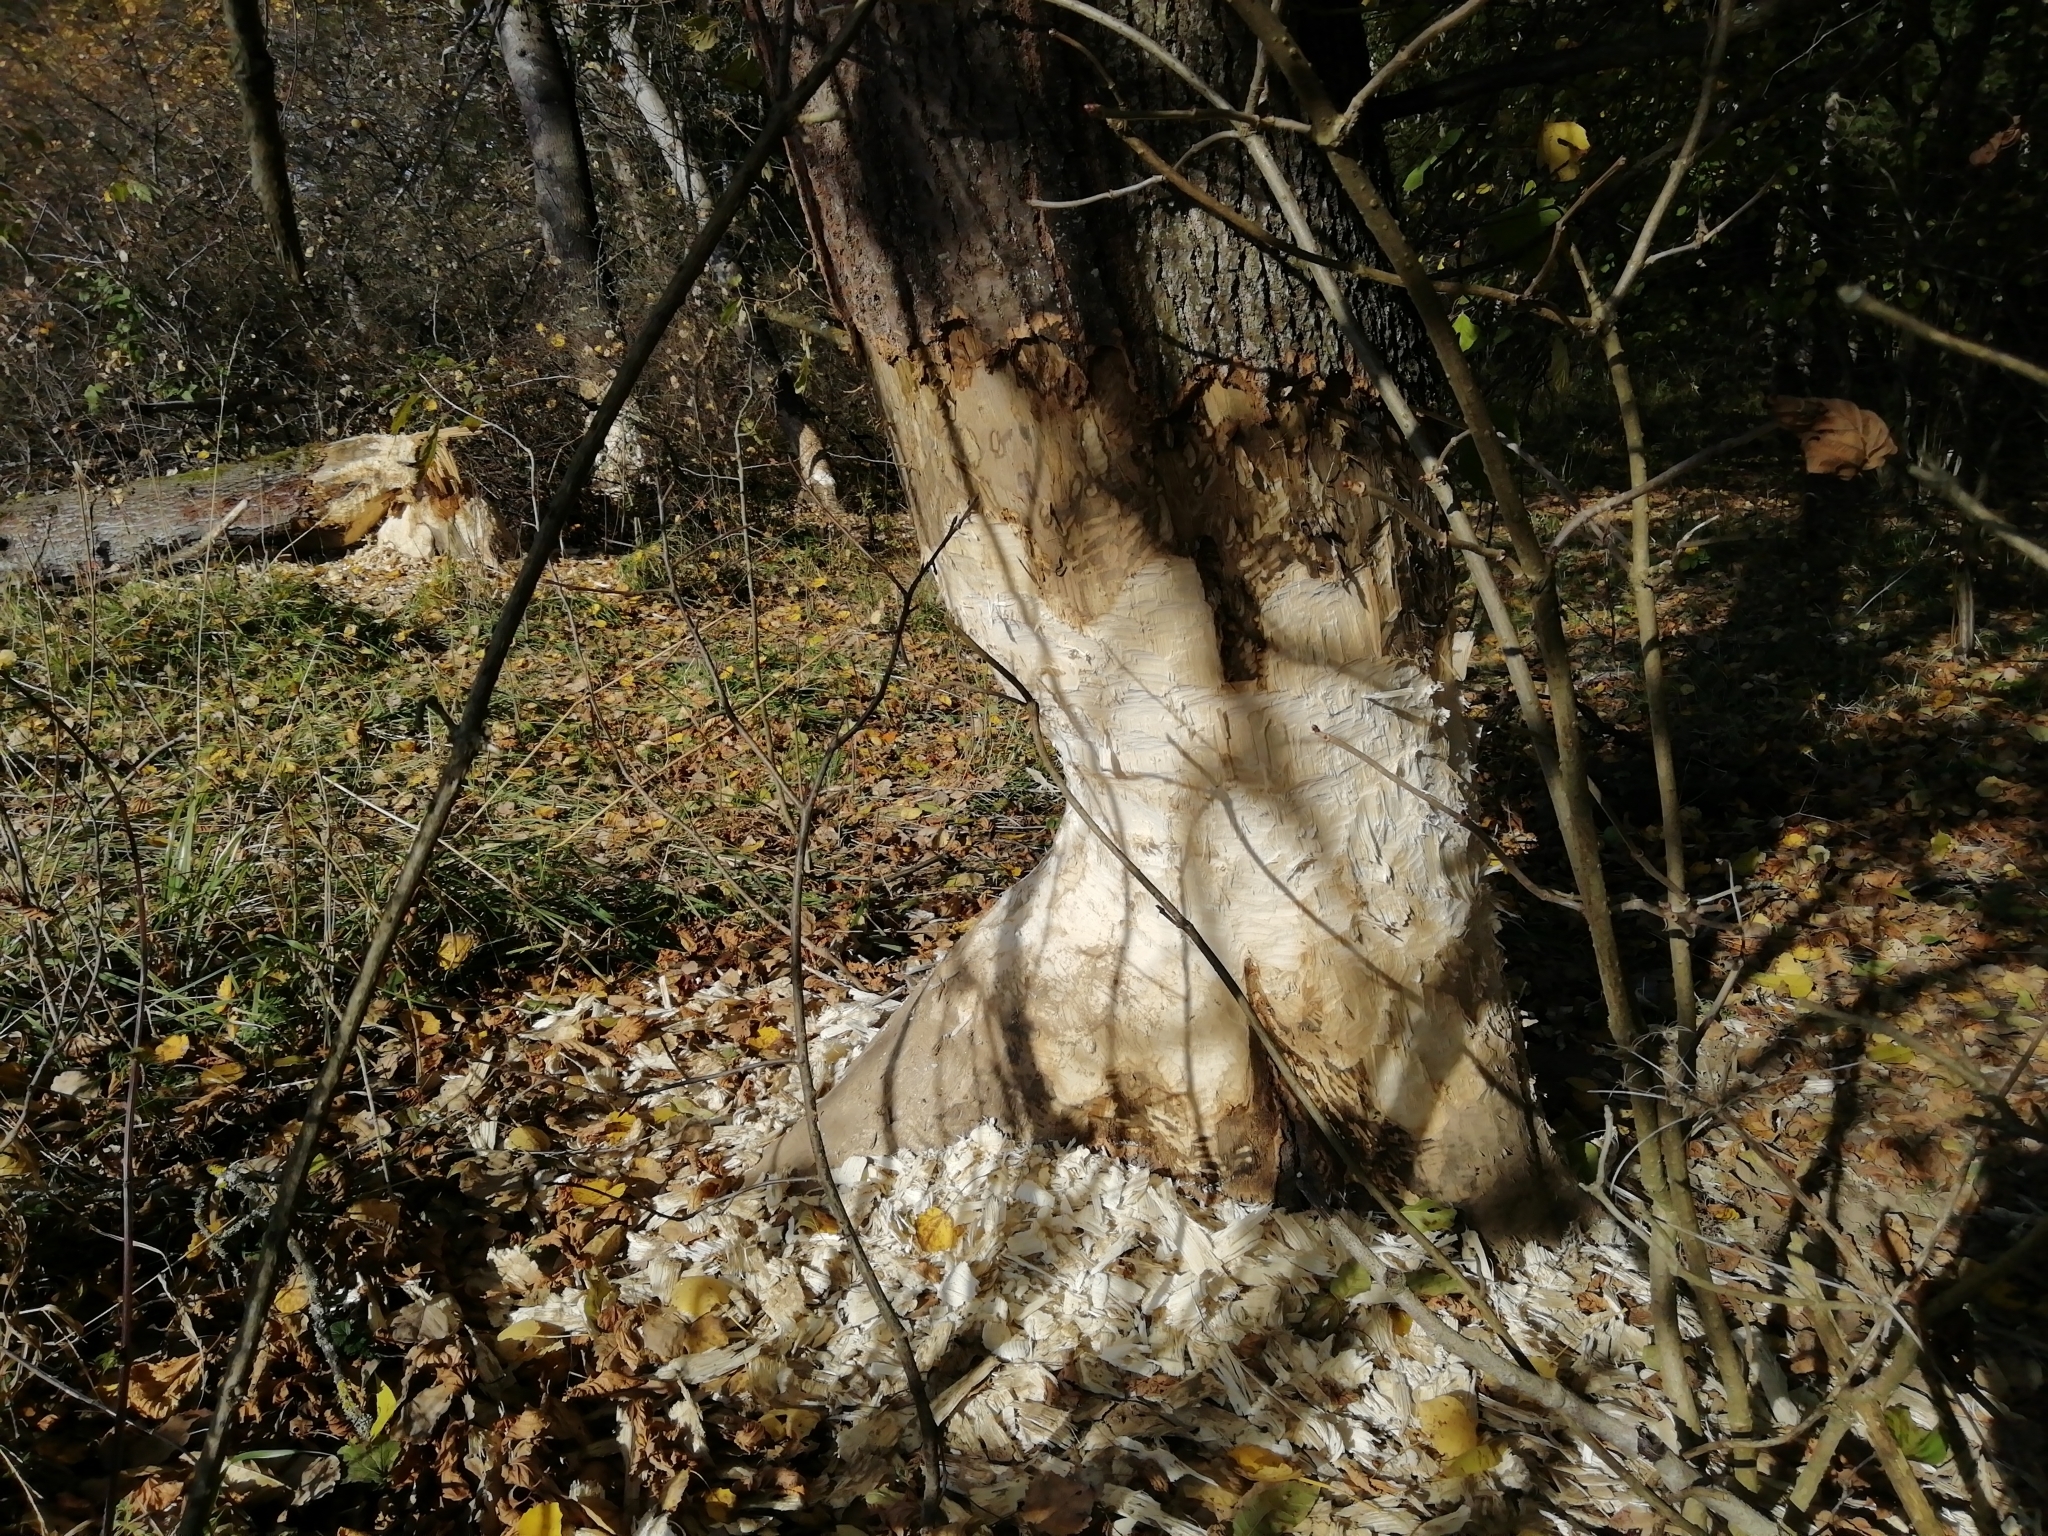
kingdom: Animalia
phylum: Chordata
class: Mammalia
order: Rodentia
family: Castoridae
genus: Castor
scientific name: Castor fiber
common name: Eurasian beaver
